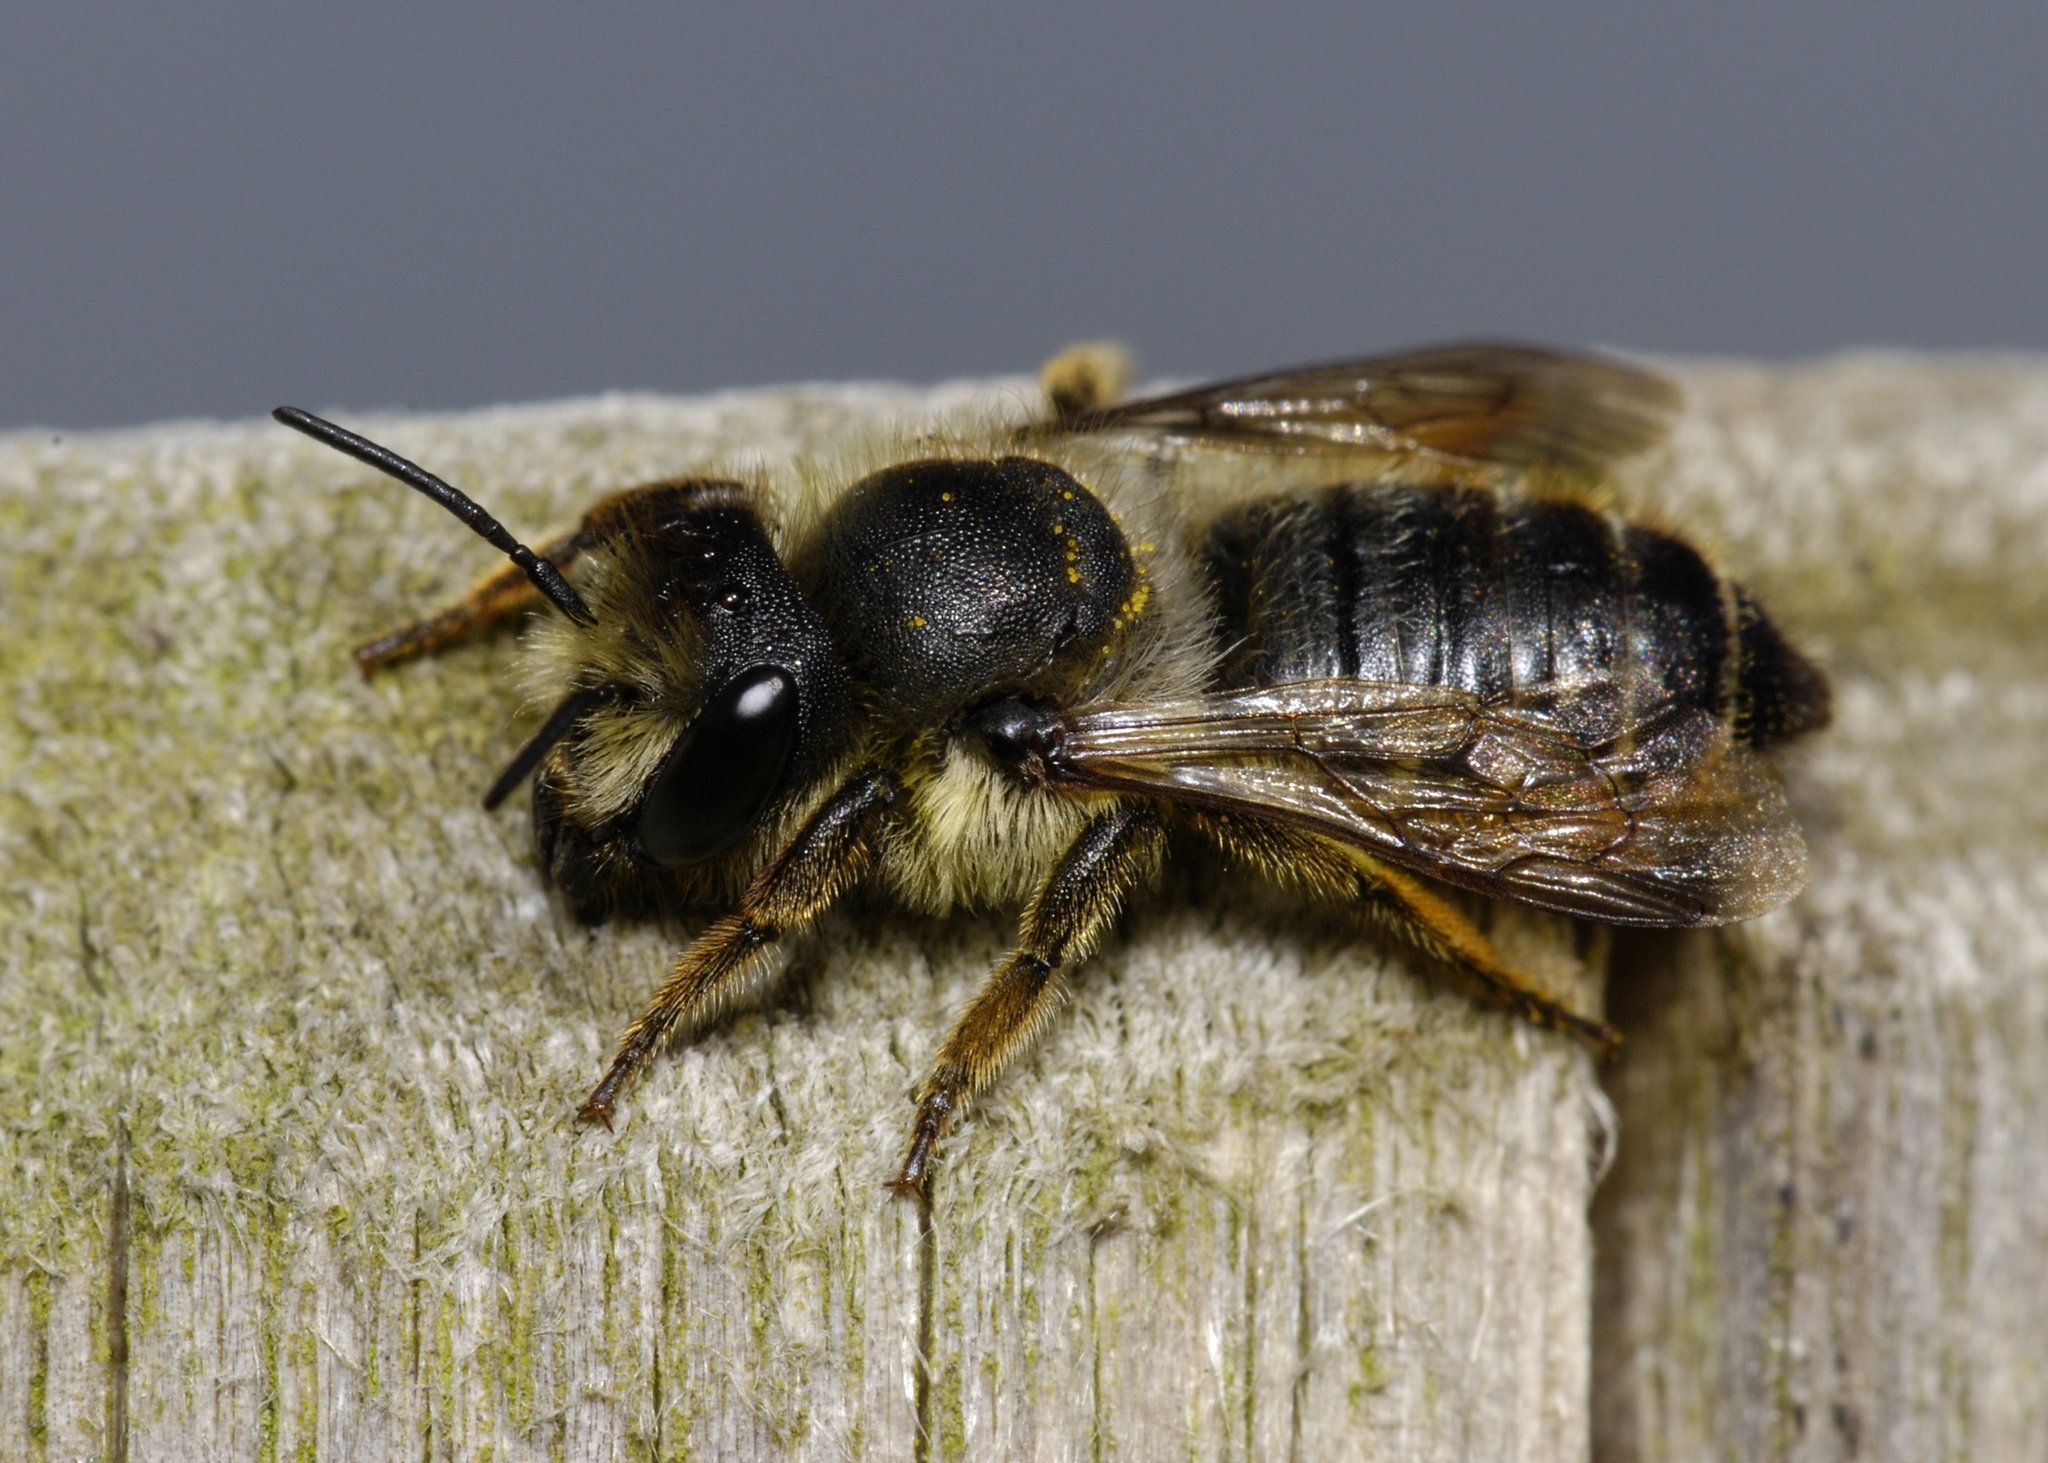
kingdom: Animalia
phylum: Arthropoda
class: Insecta
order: Hymenoptera
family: Megachilidae
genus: Megachile
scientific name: Megachile
